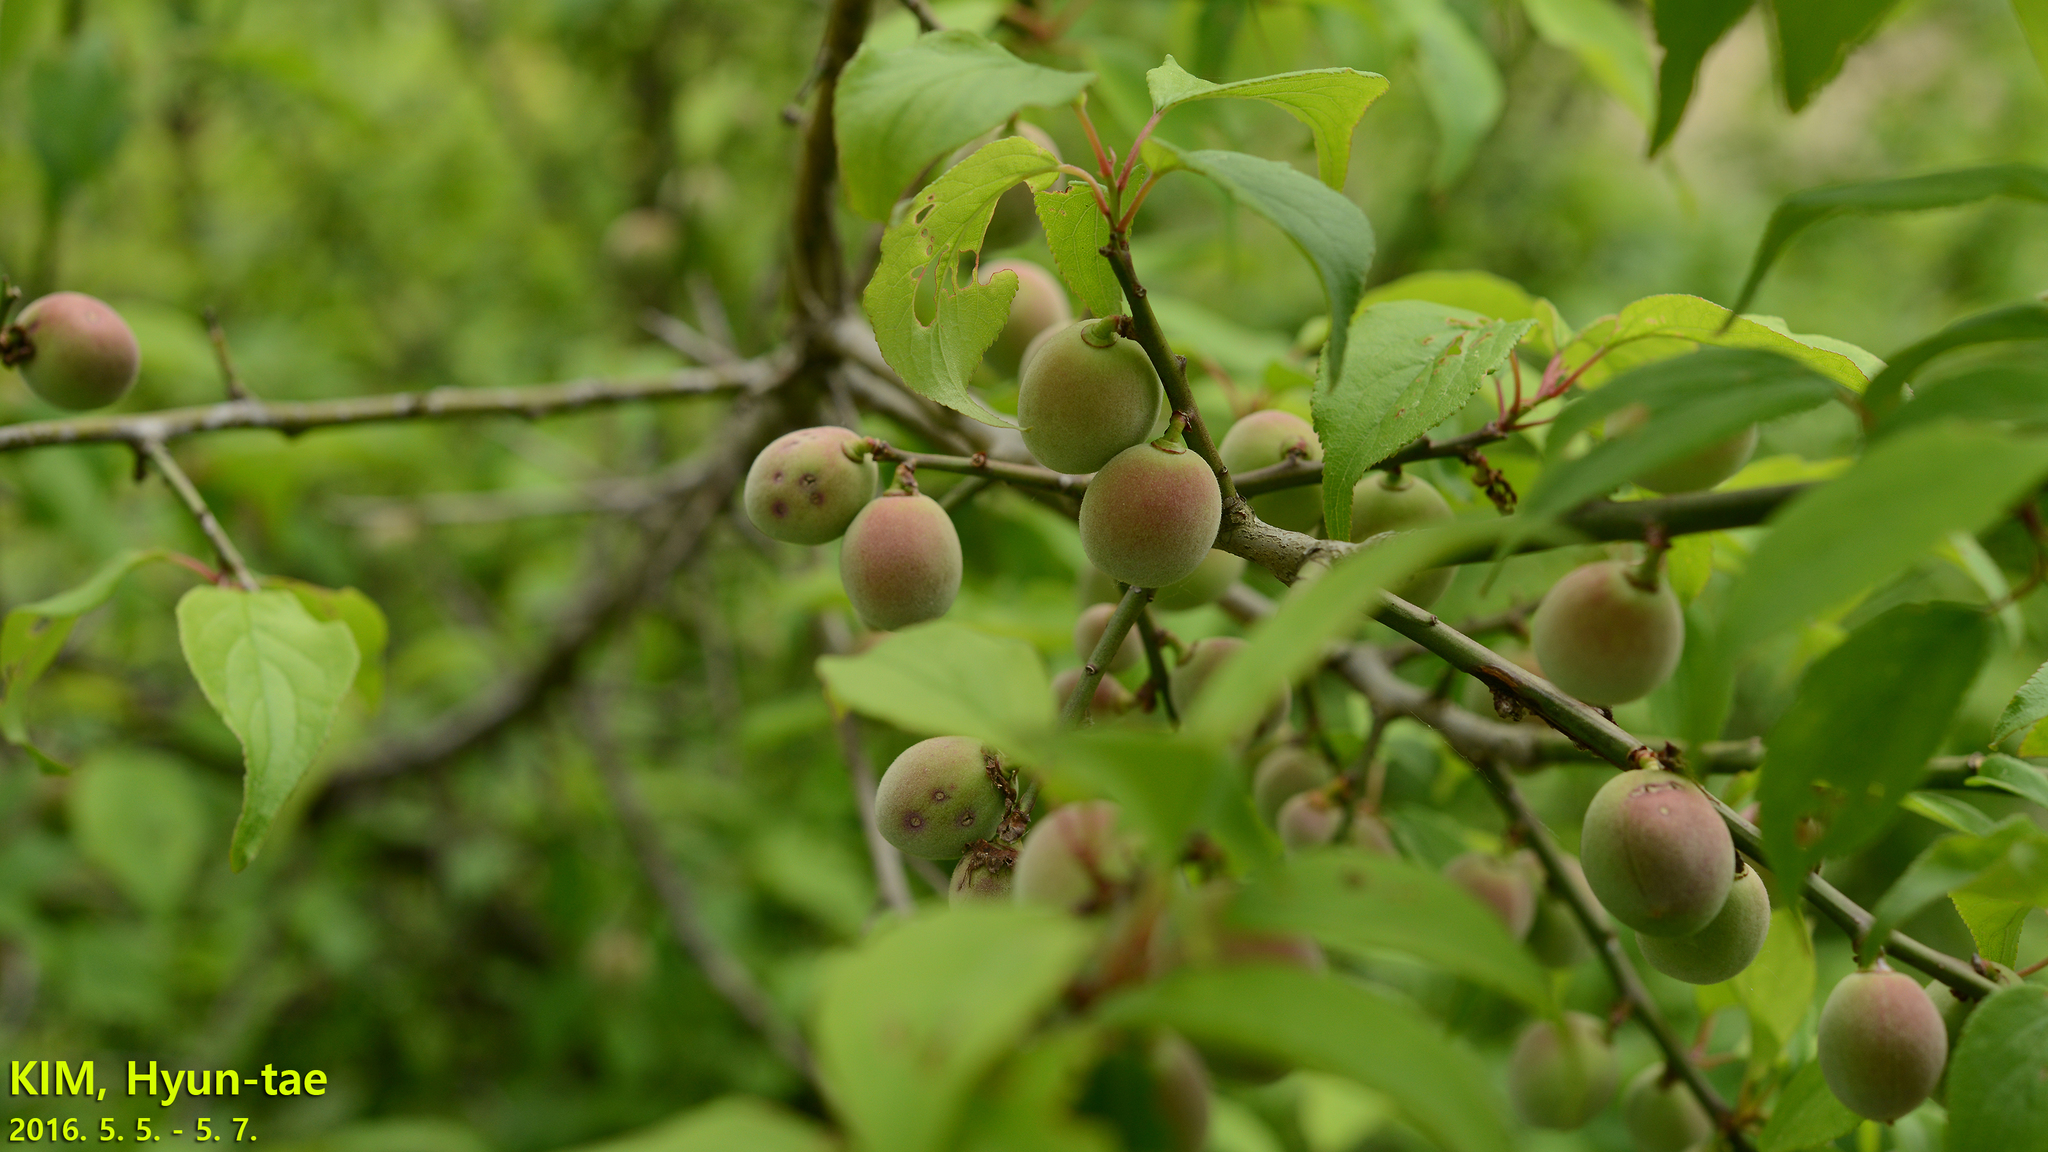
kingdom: Plantae
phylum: Tracheophyta
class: Magnoliopsida
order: Rosales
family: Rosaceae
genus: Prunus
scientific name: Prunus mume
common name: Japanese apricot
